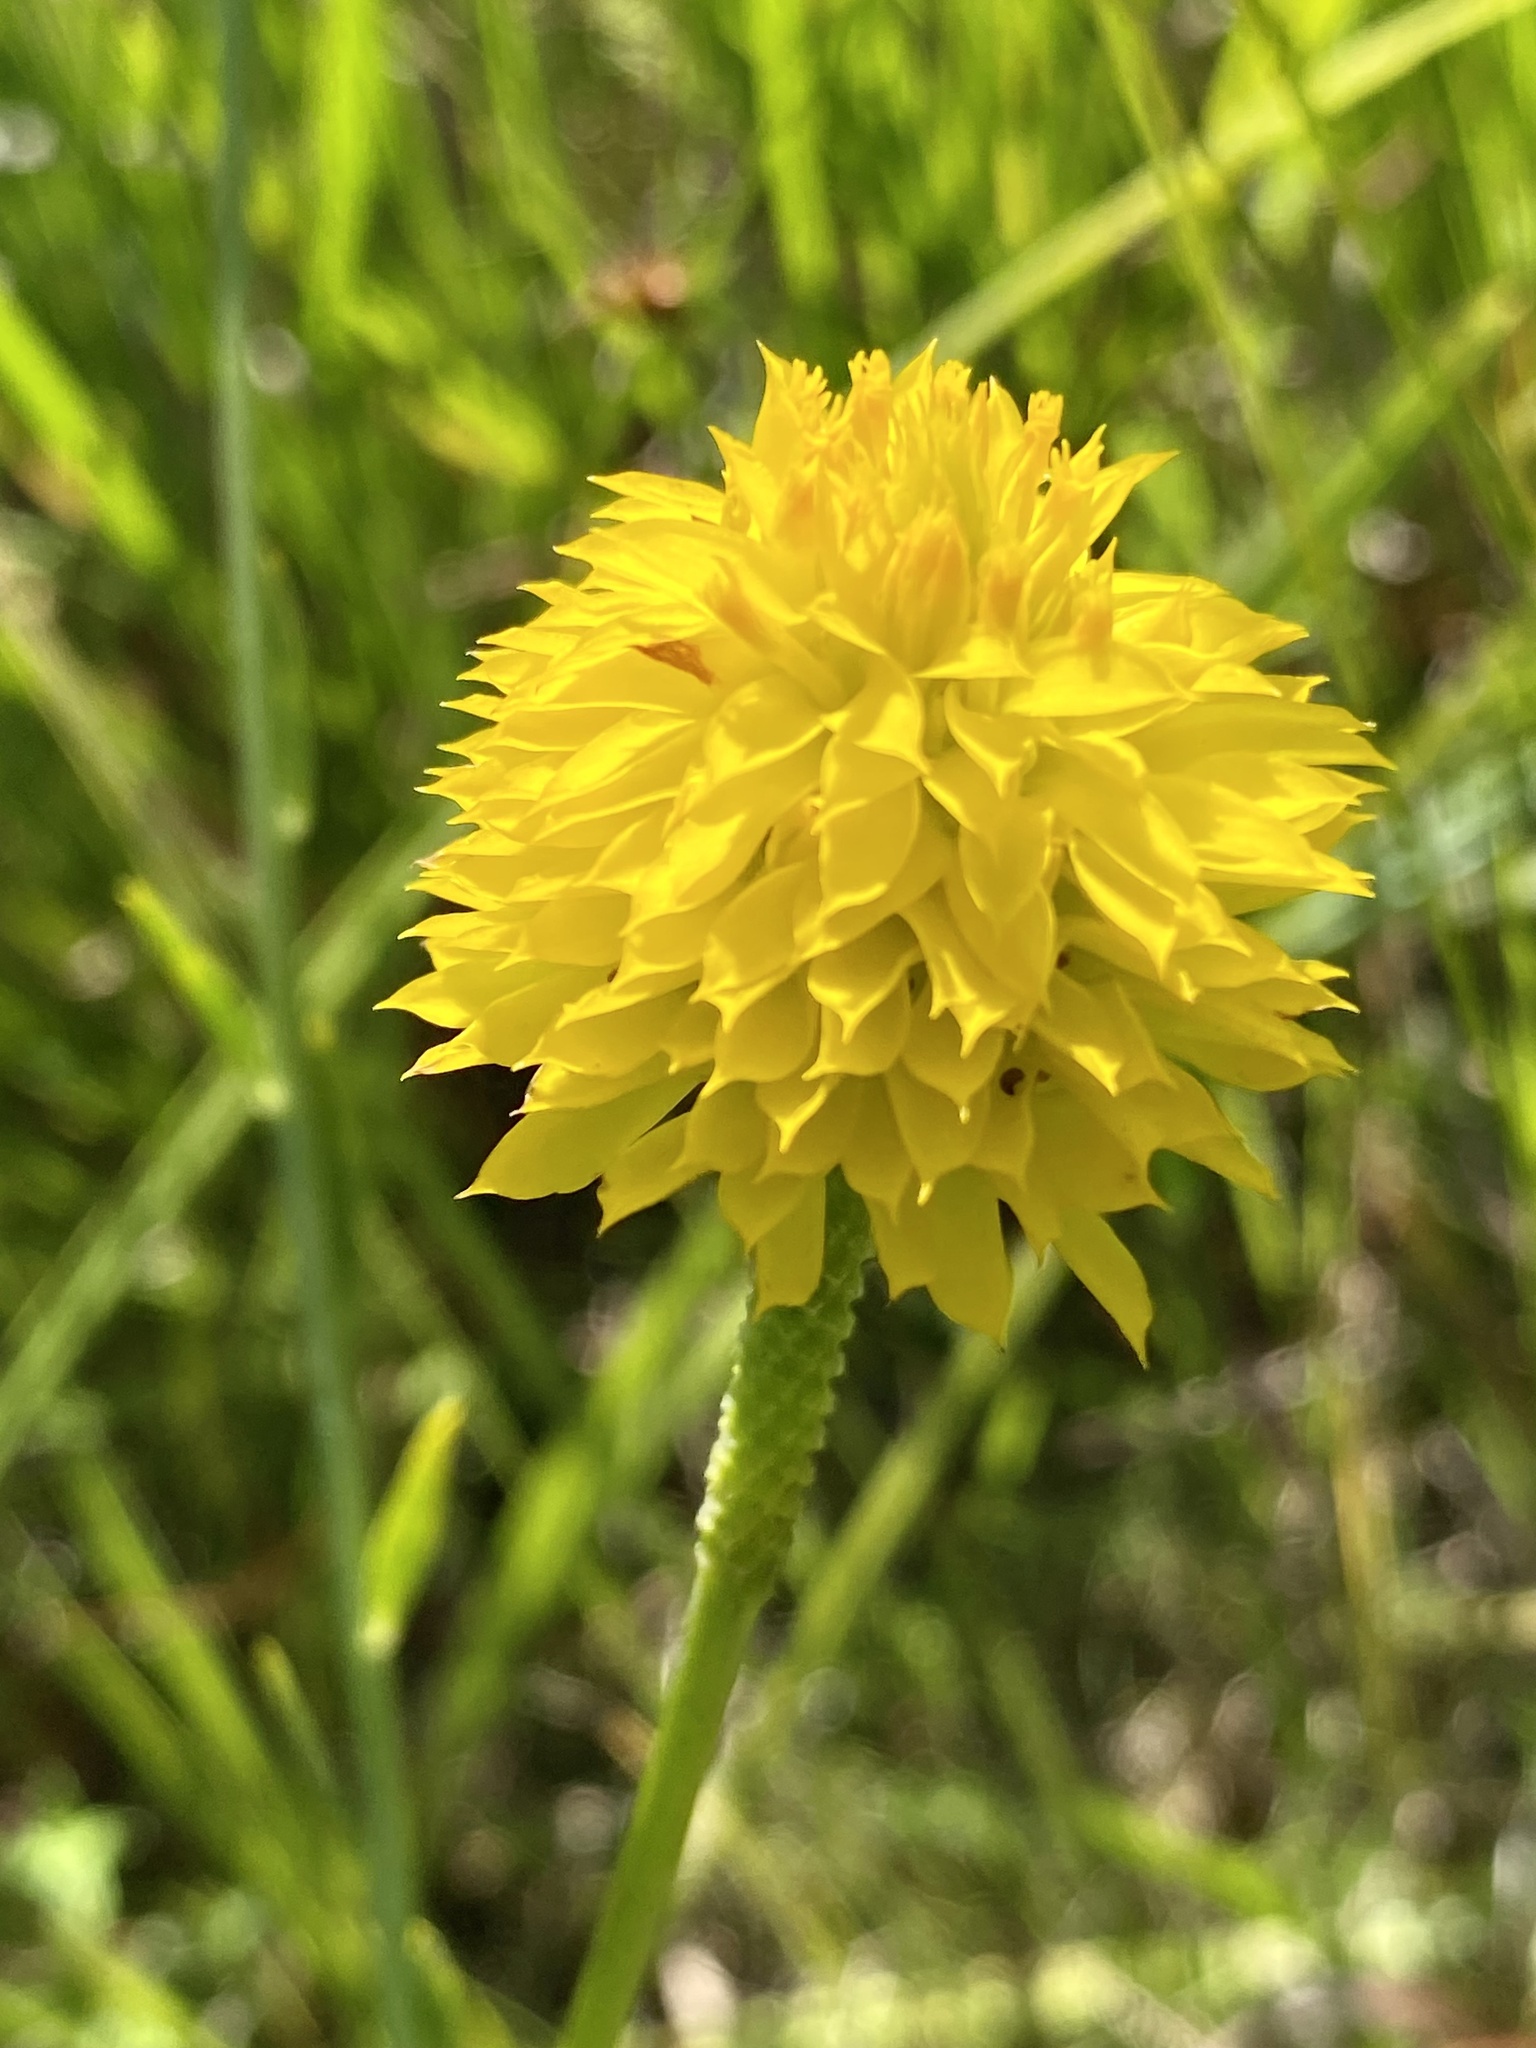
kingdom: Plantae
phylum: Tracheophyta
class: Magnoliopsida
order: Fabales
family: Polygalaceae
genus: Polygala
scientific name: Polygala rugelii
